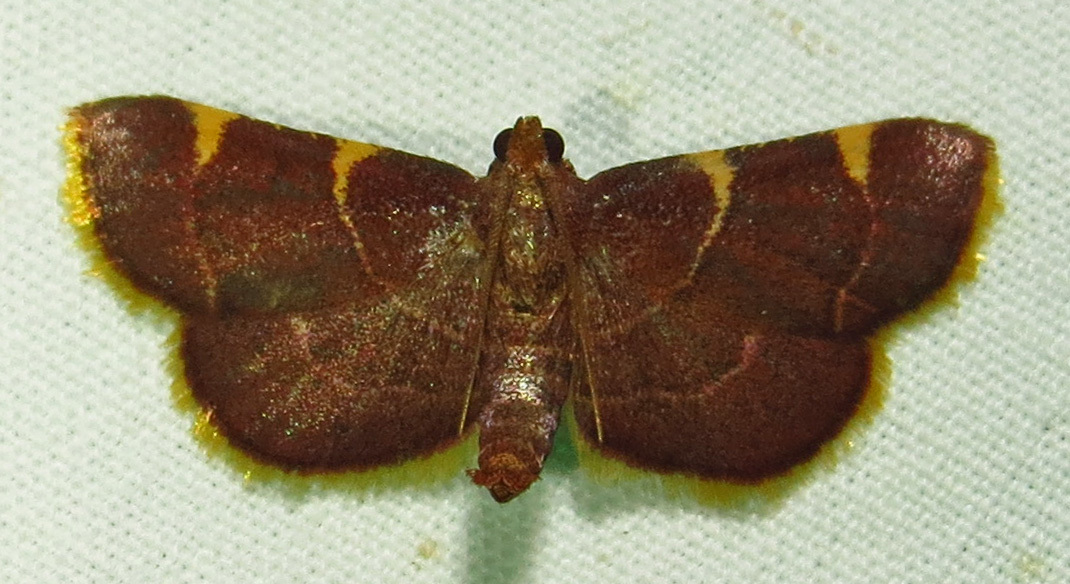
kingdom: Animalia
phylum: Arthropoda
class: Insecta
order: Lepidoptera
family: Pyralidae
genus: Hypsopygia
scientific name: Hypsopygia olinalis
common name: Yellow-fringed dolichomia moth
